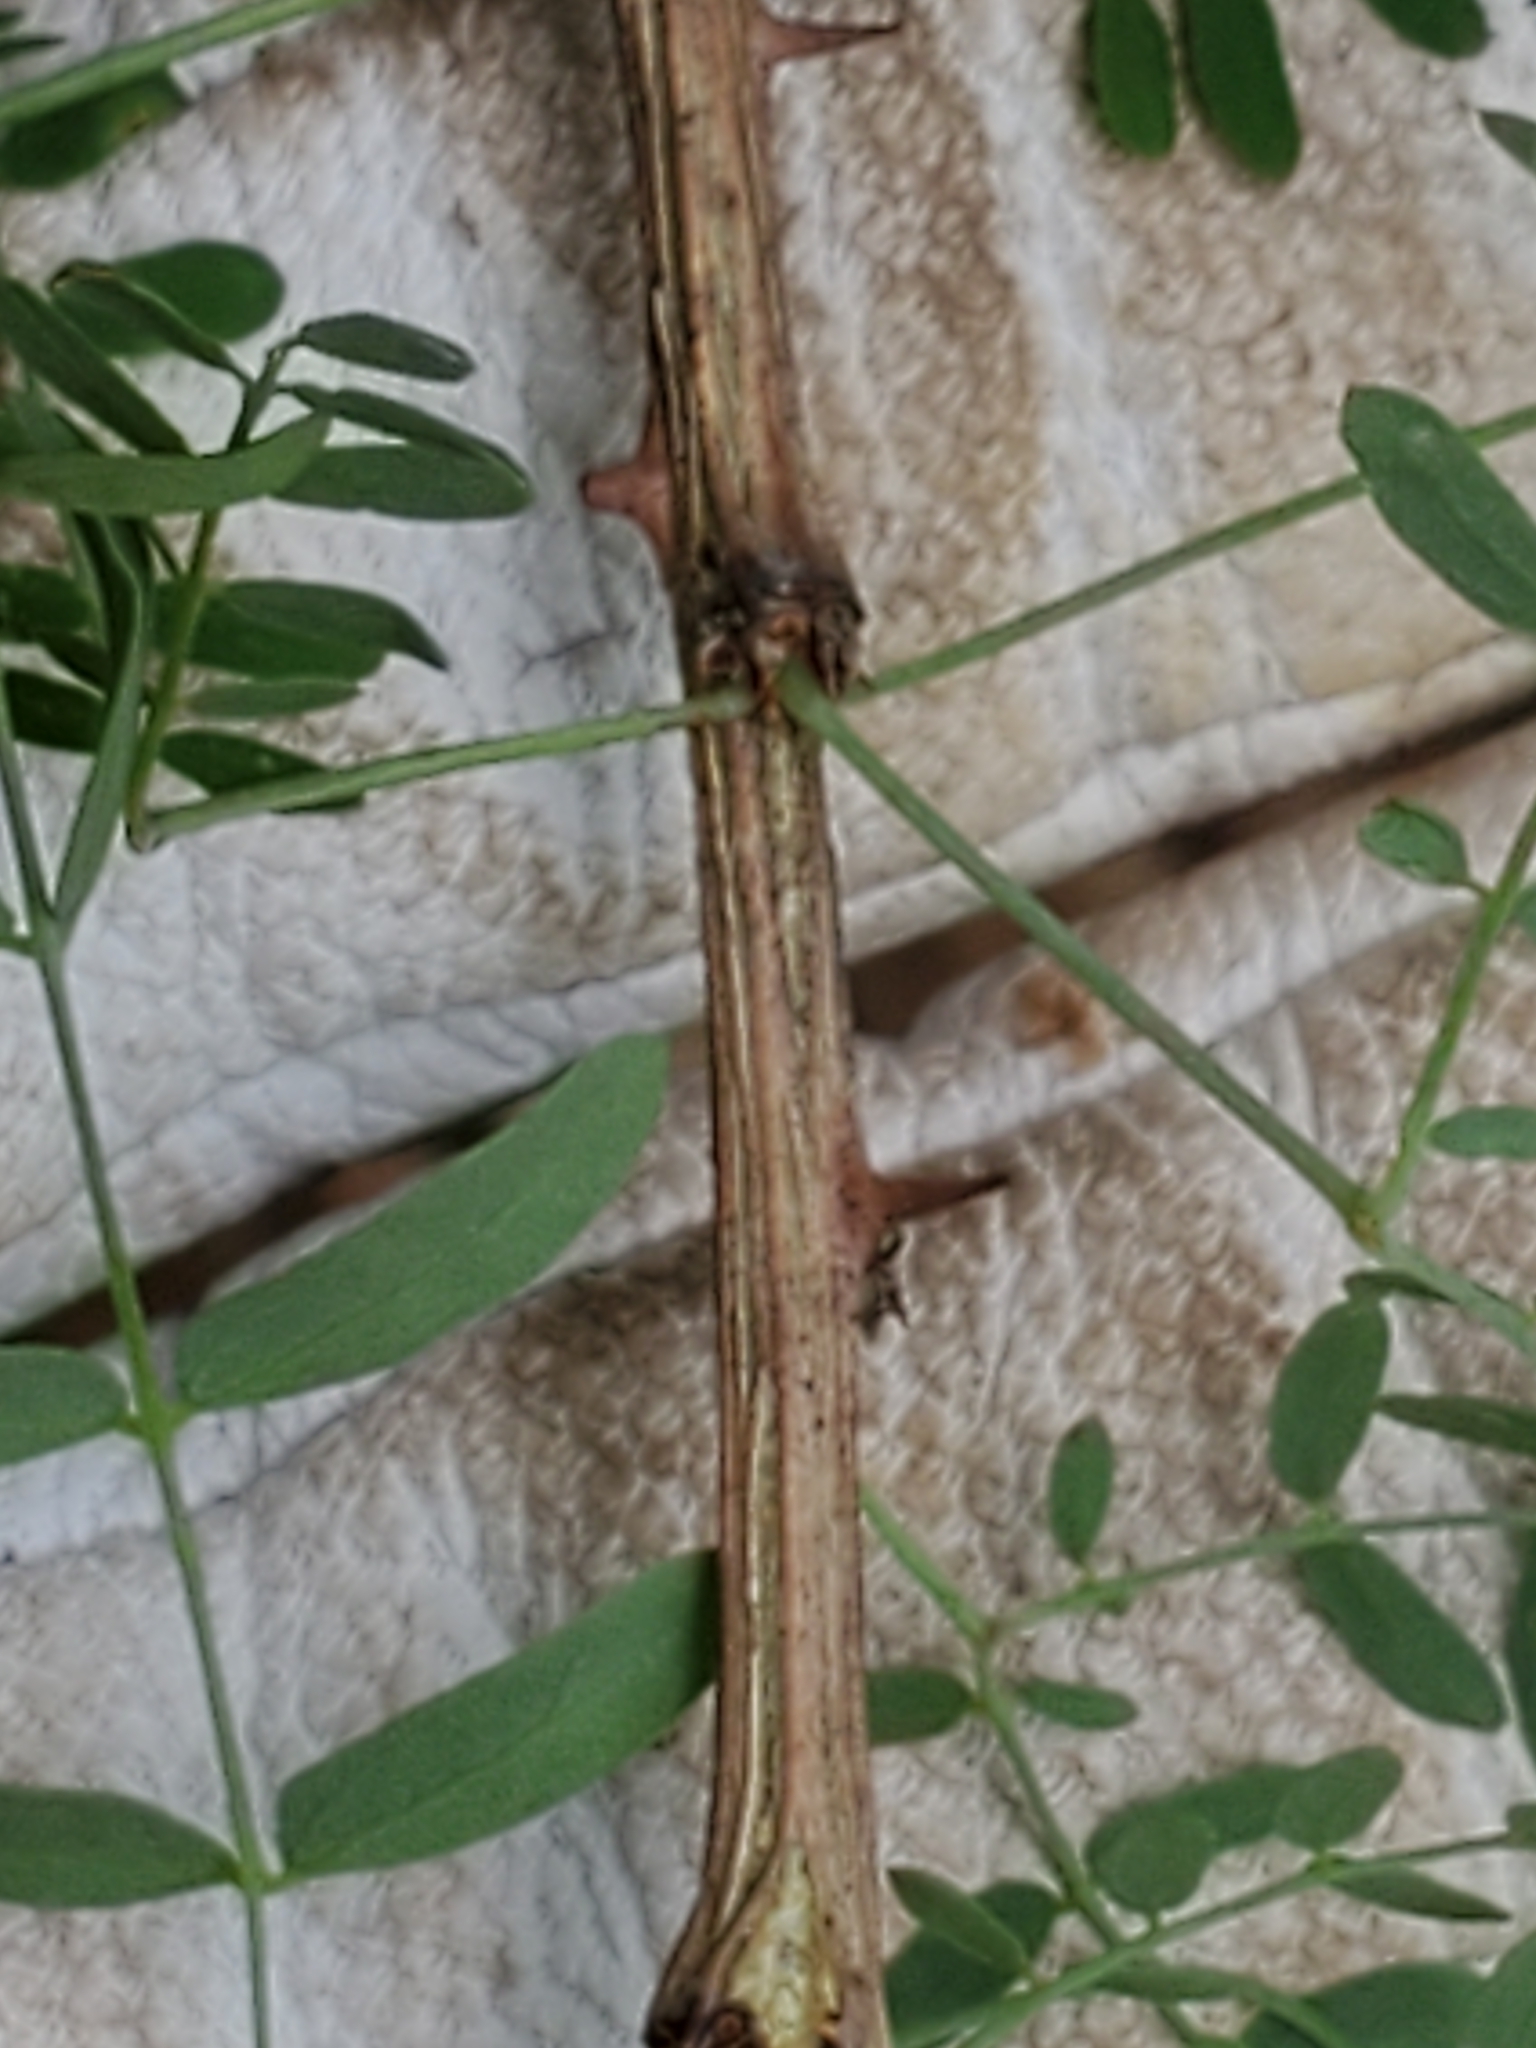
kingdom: Plantae
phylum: Tracheophyta
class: Magnoliopsida
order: Fabales
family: Fabaceae
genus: Mimosa
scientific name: Mimosa borealis
